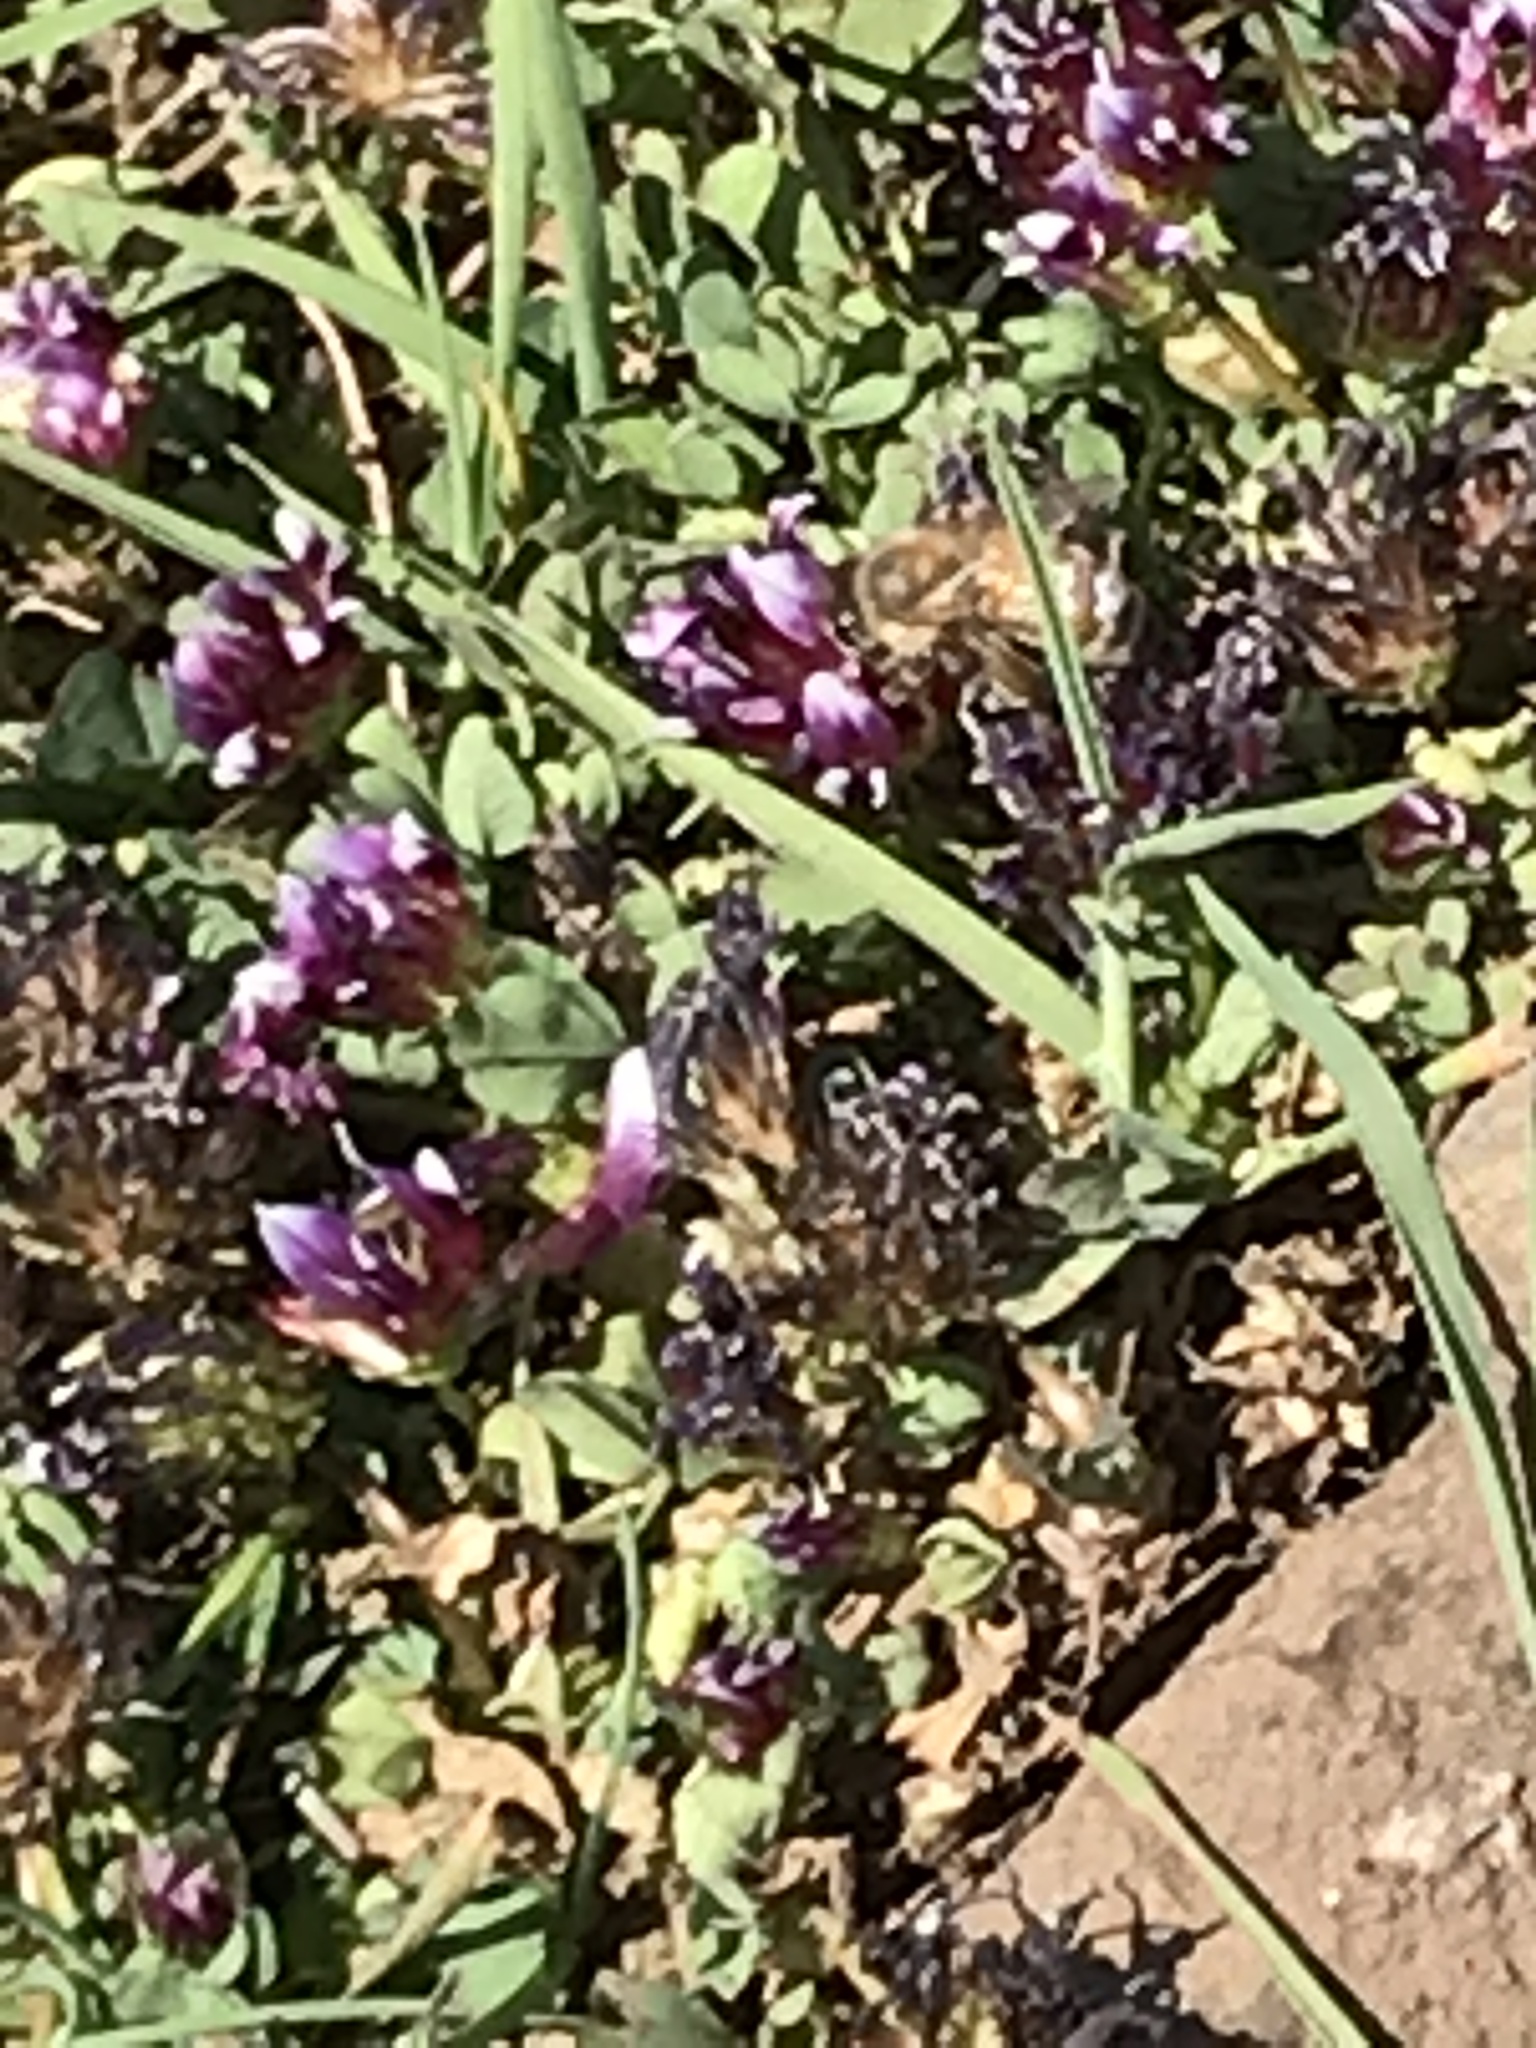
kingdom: Animalia
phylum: Arthropoda
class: Insecta
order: Hymenoptera
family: Apidae
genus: Apis
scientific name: Apis mellifera
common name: Honey bee
